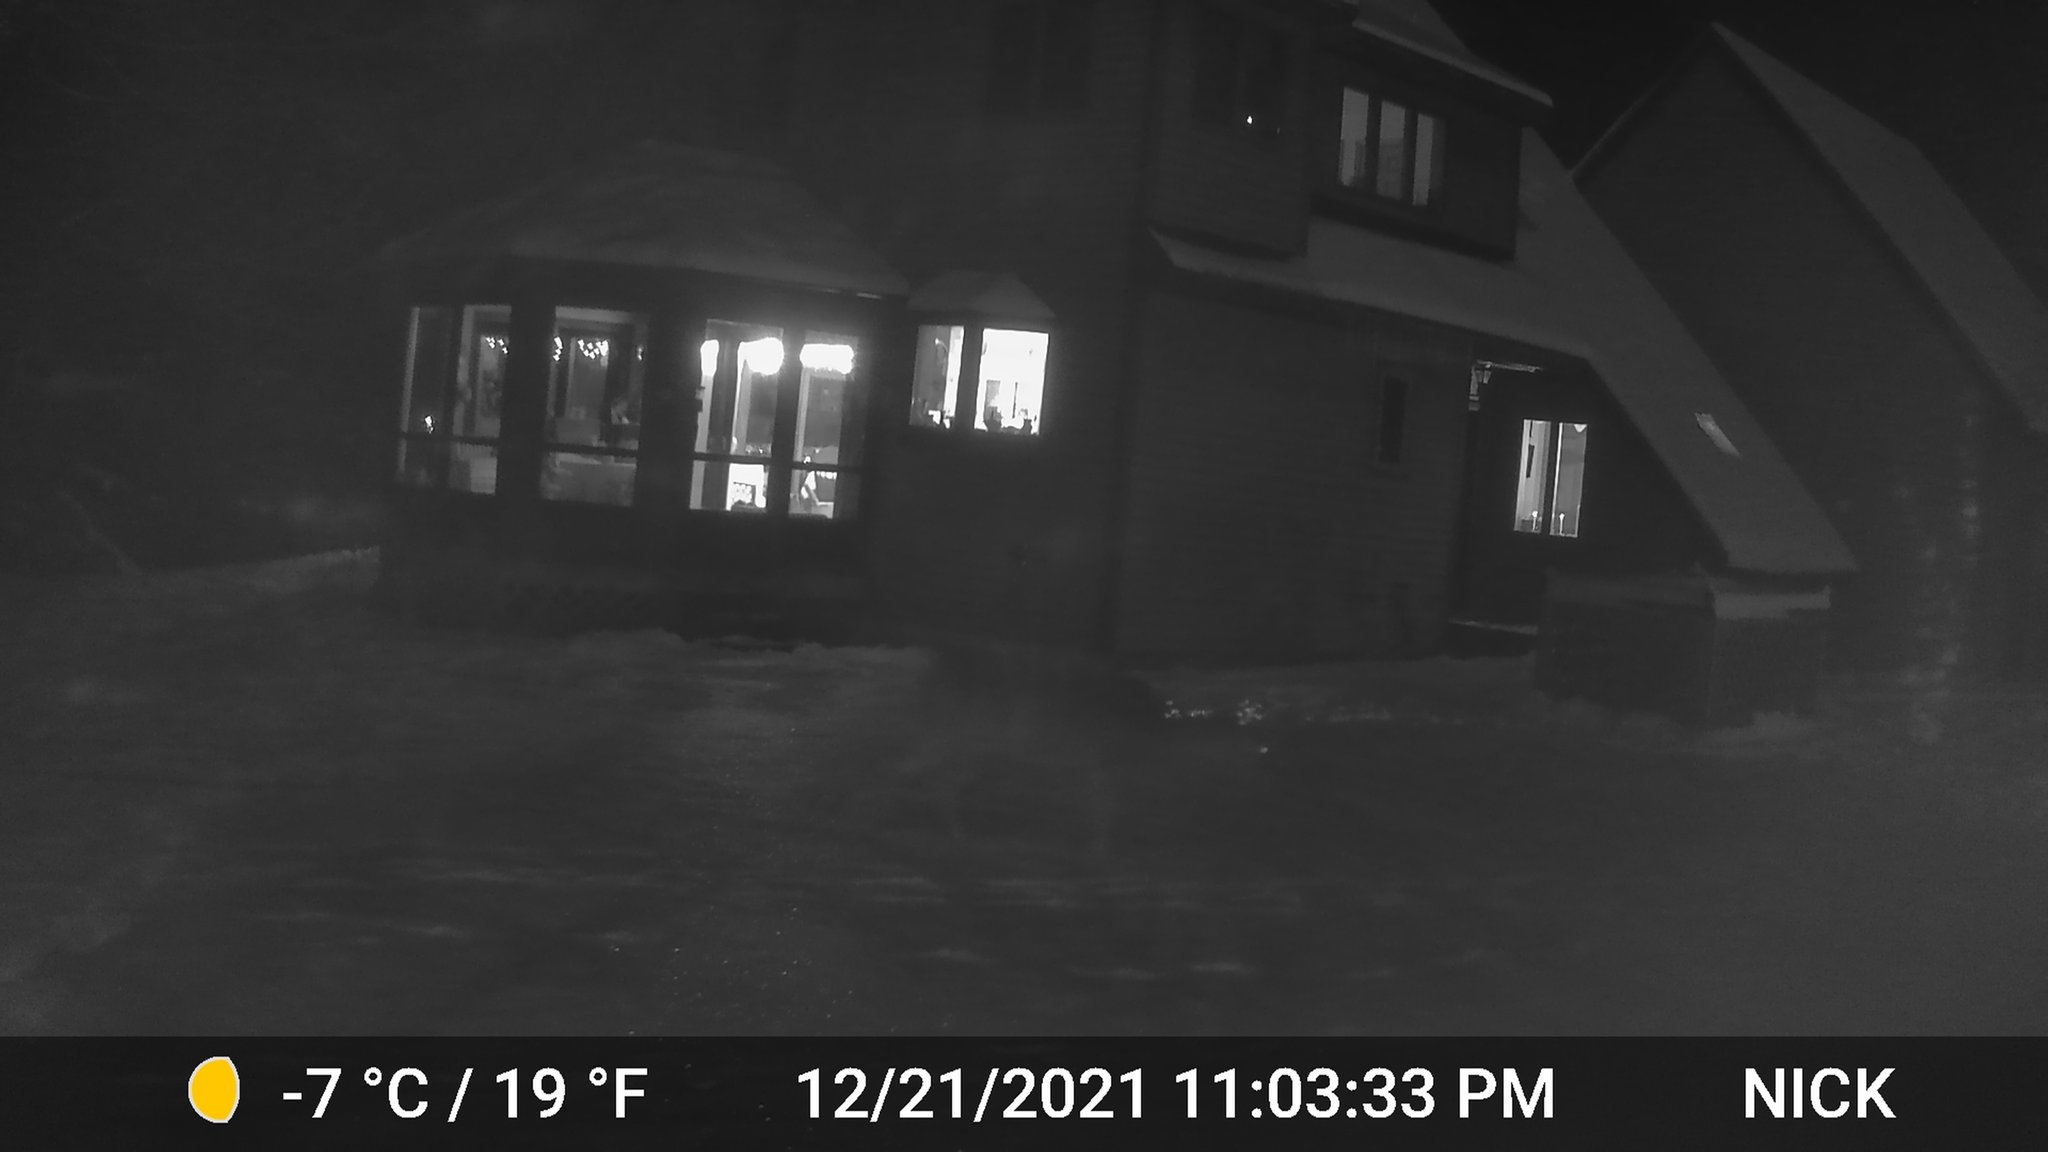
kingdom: Animalia
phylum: Chordata
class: Mammalia
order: Artiodactyla
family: Cervidae
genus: Odocoileus
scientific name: Odocoileus virginianus
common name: White-tailed deer
